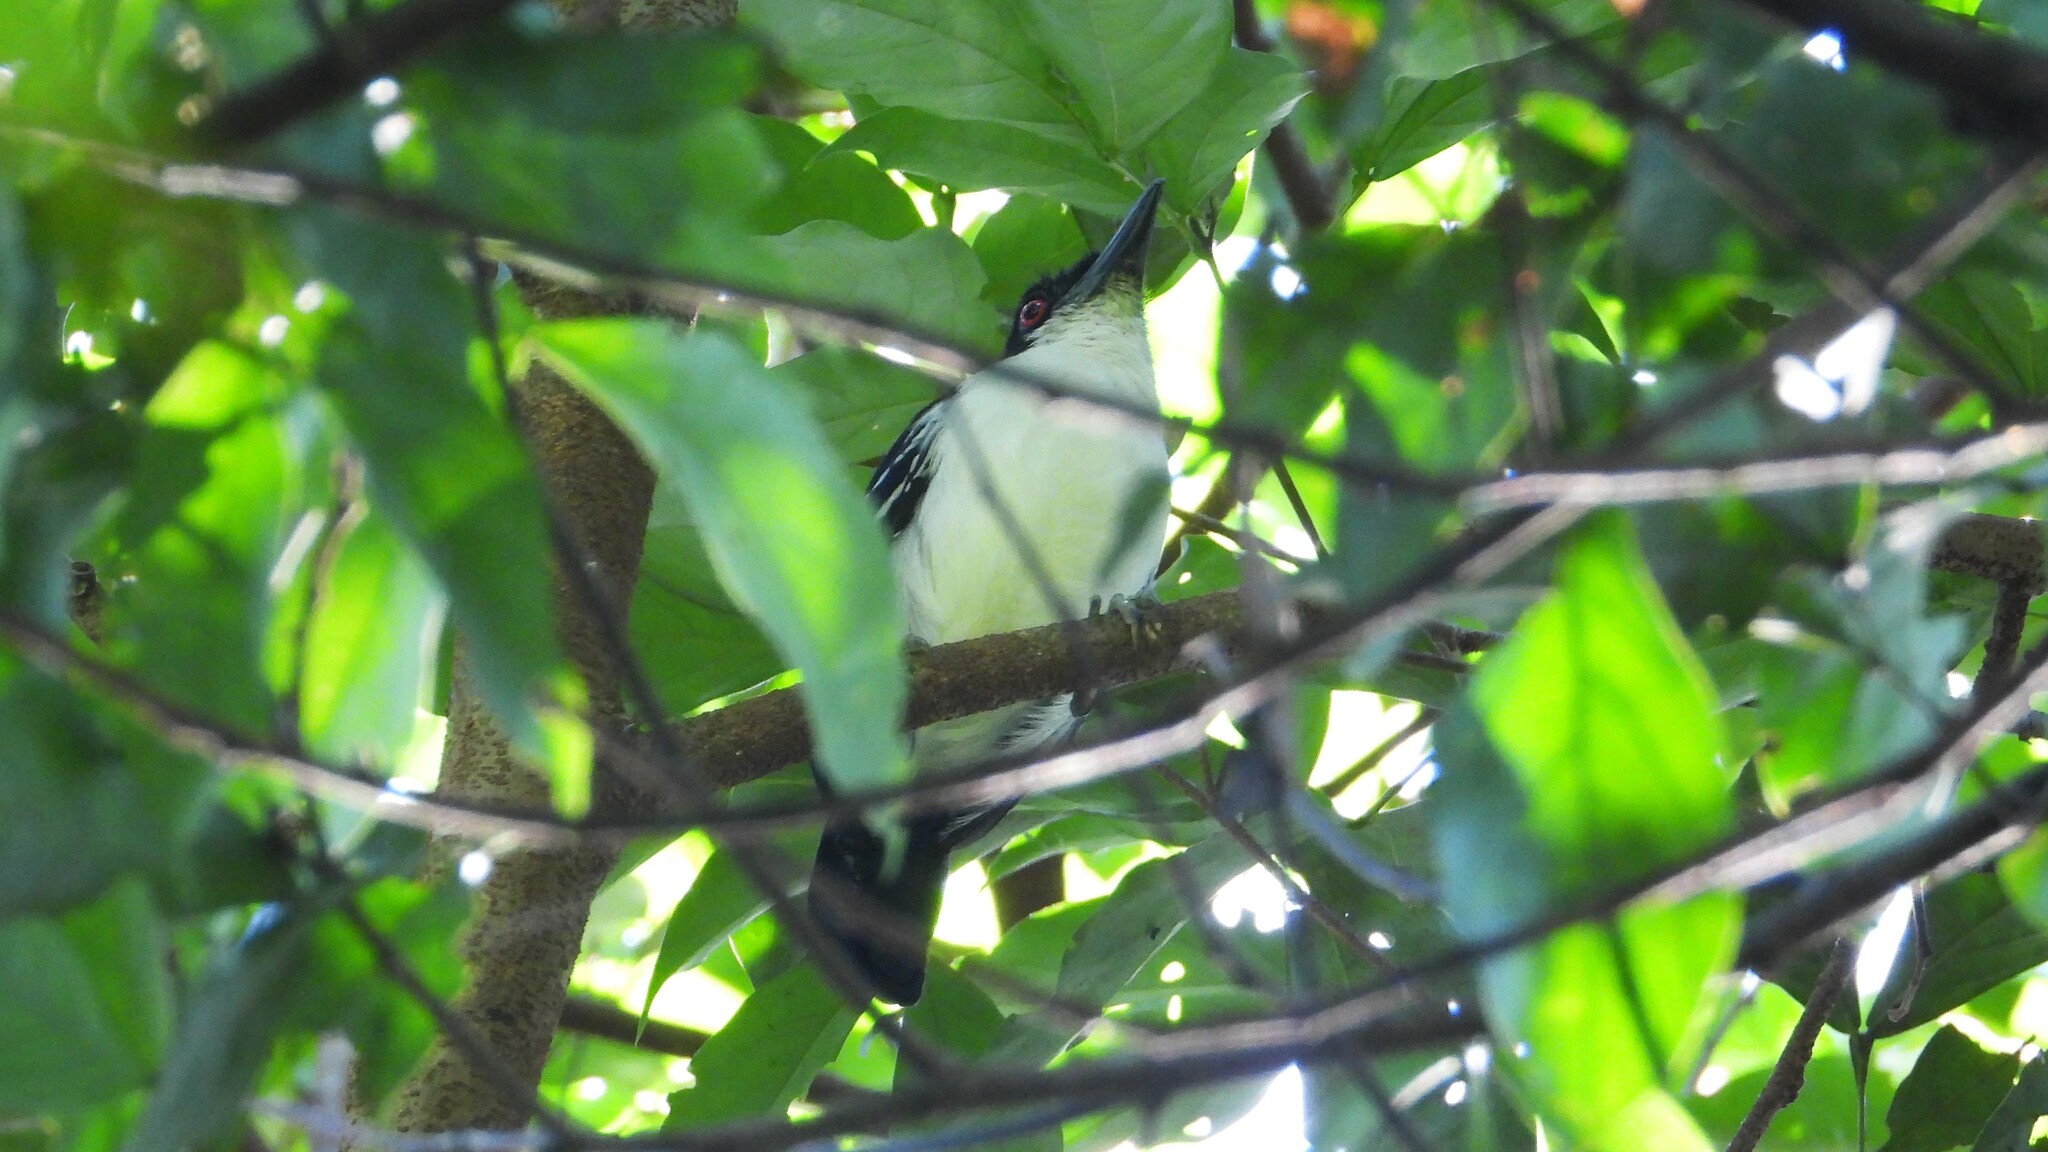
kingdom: Animalia
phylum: Chordata
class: Aves
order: Passeriformes
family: Thamnophilidae
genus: Taraba
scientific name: Taraba major
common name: Great antshrike
